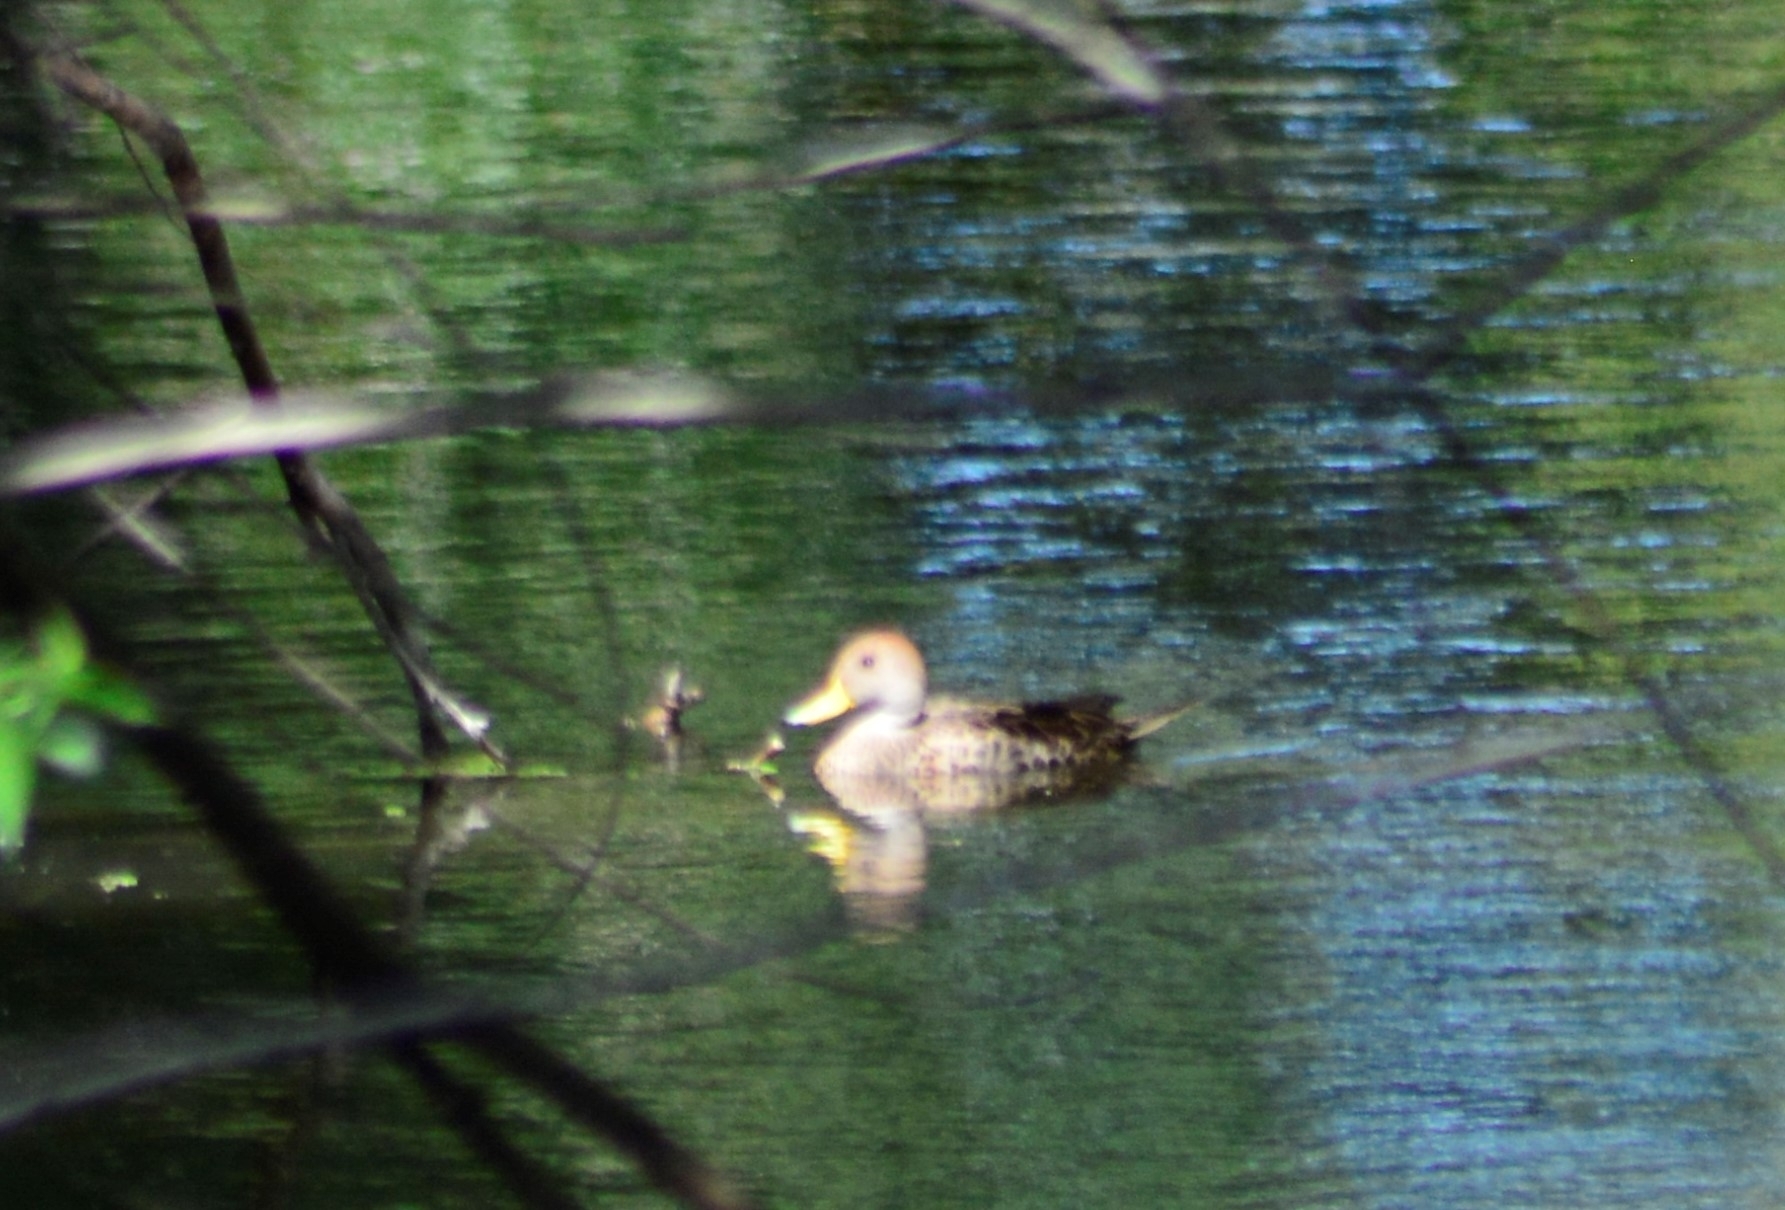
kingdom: Animalia
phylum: Chordata
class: Aves
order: Anseriformes
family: Anatidae
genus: Anas
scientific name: Anas georgica
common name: Yellow-billed pintail
